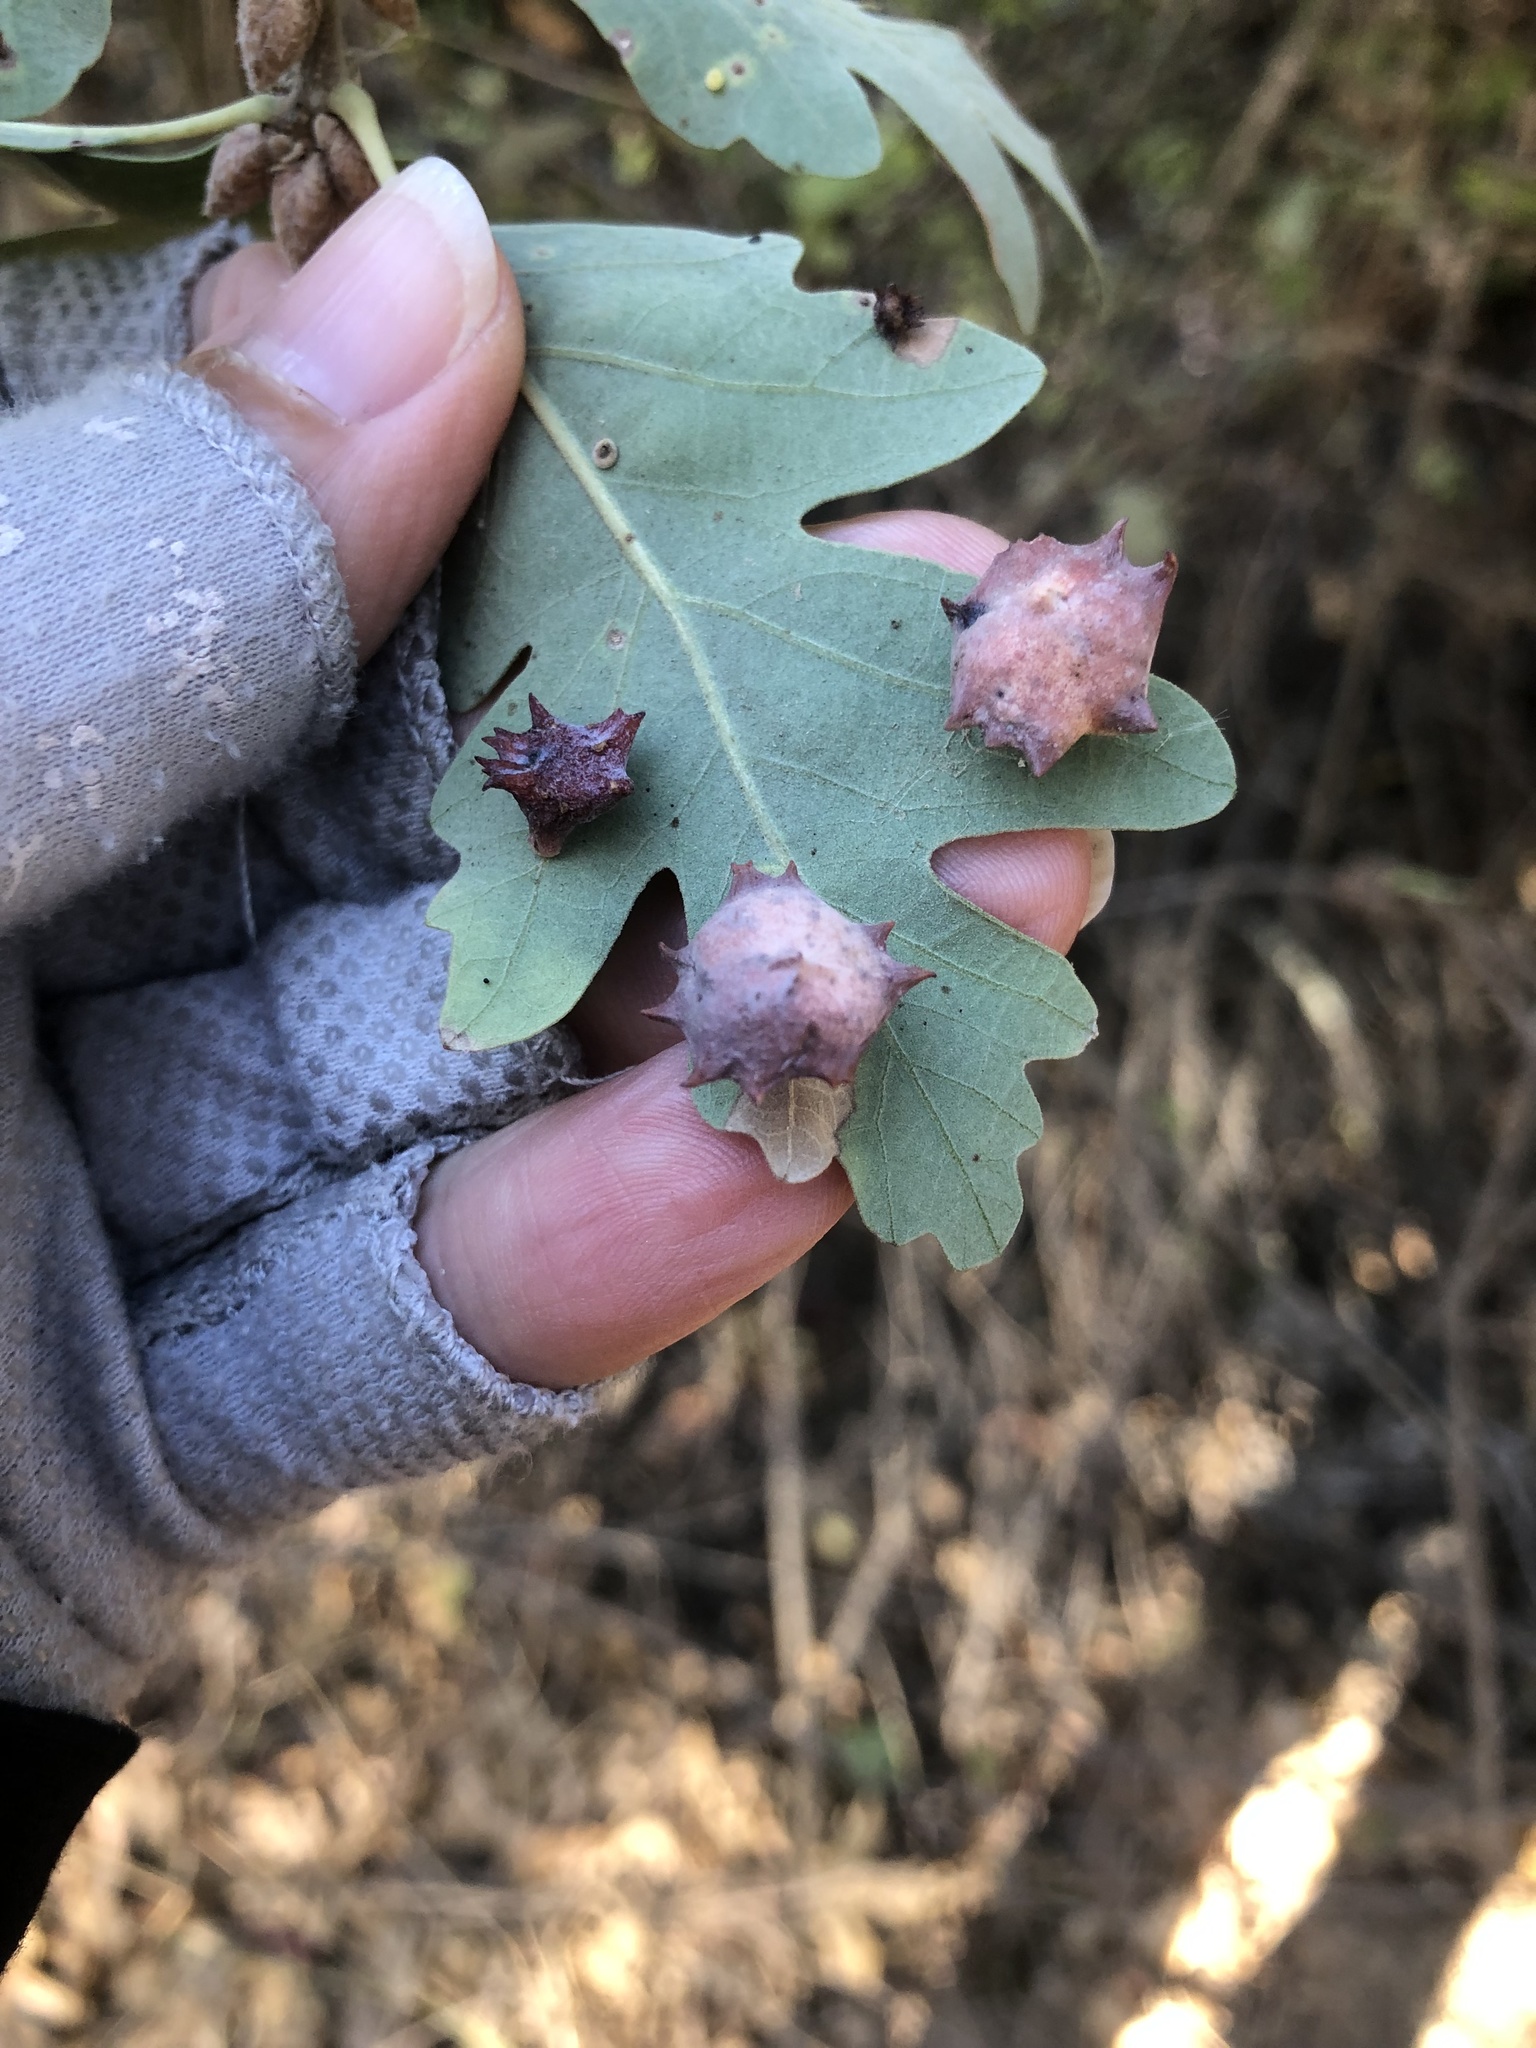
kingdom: Animalia
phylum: Arthropoda
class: Insecta
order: Hymenoptera
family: Cynipidae
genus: Cynips
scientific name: Cynips douglasi
